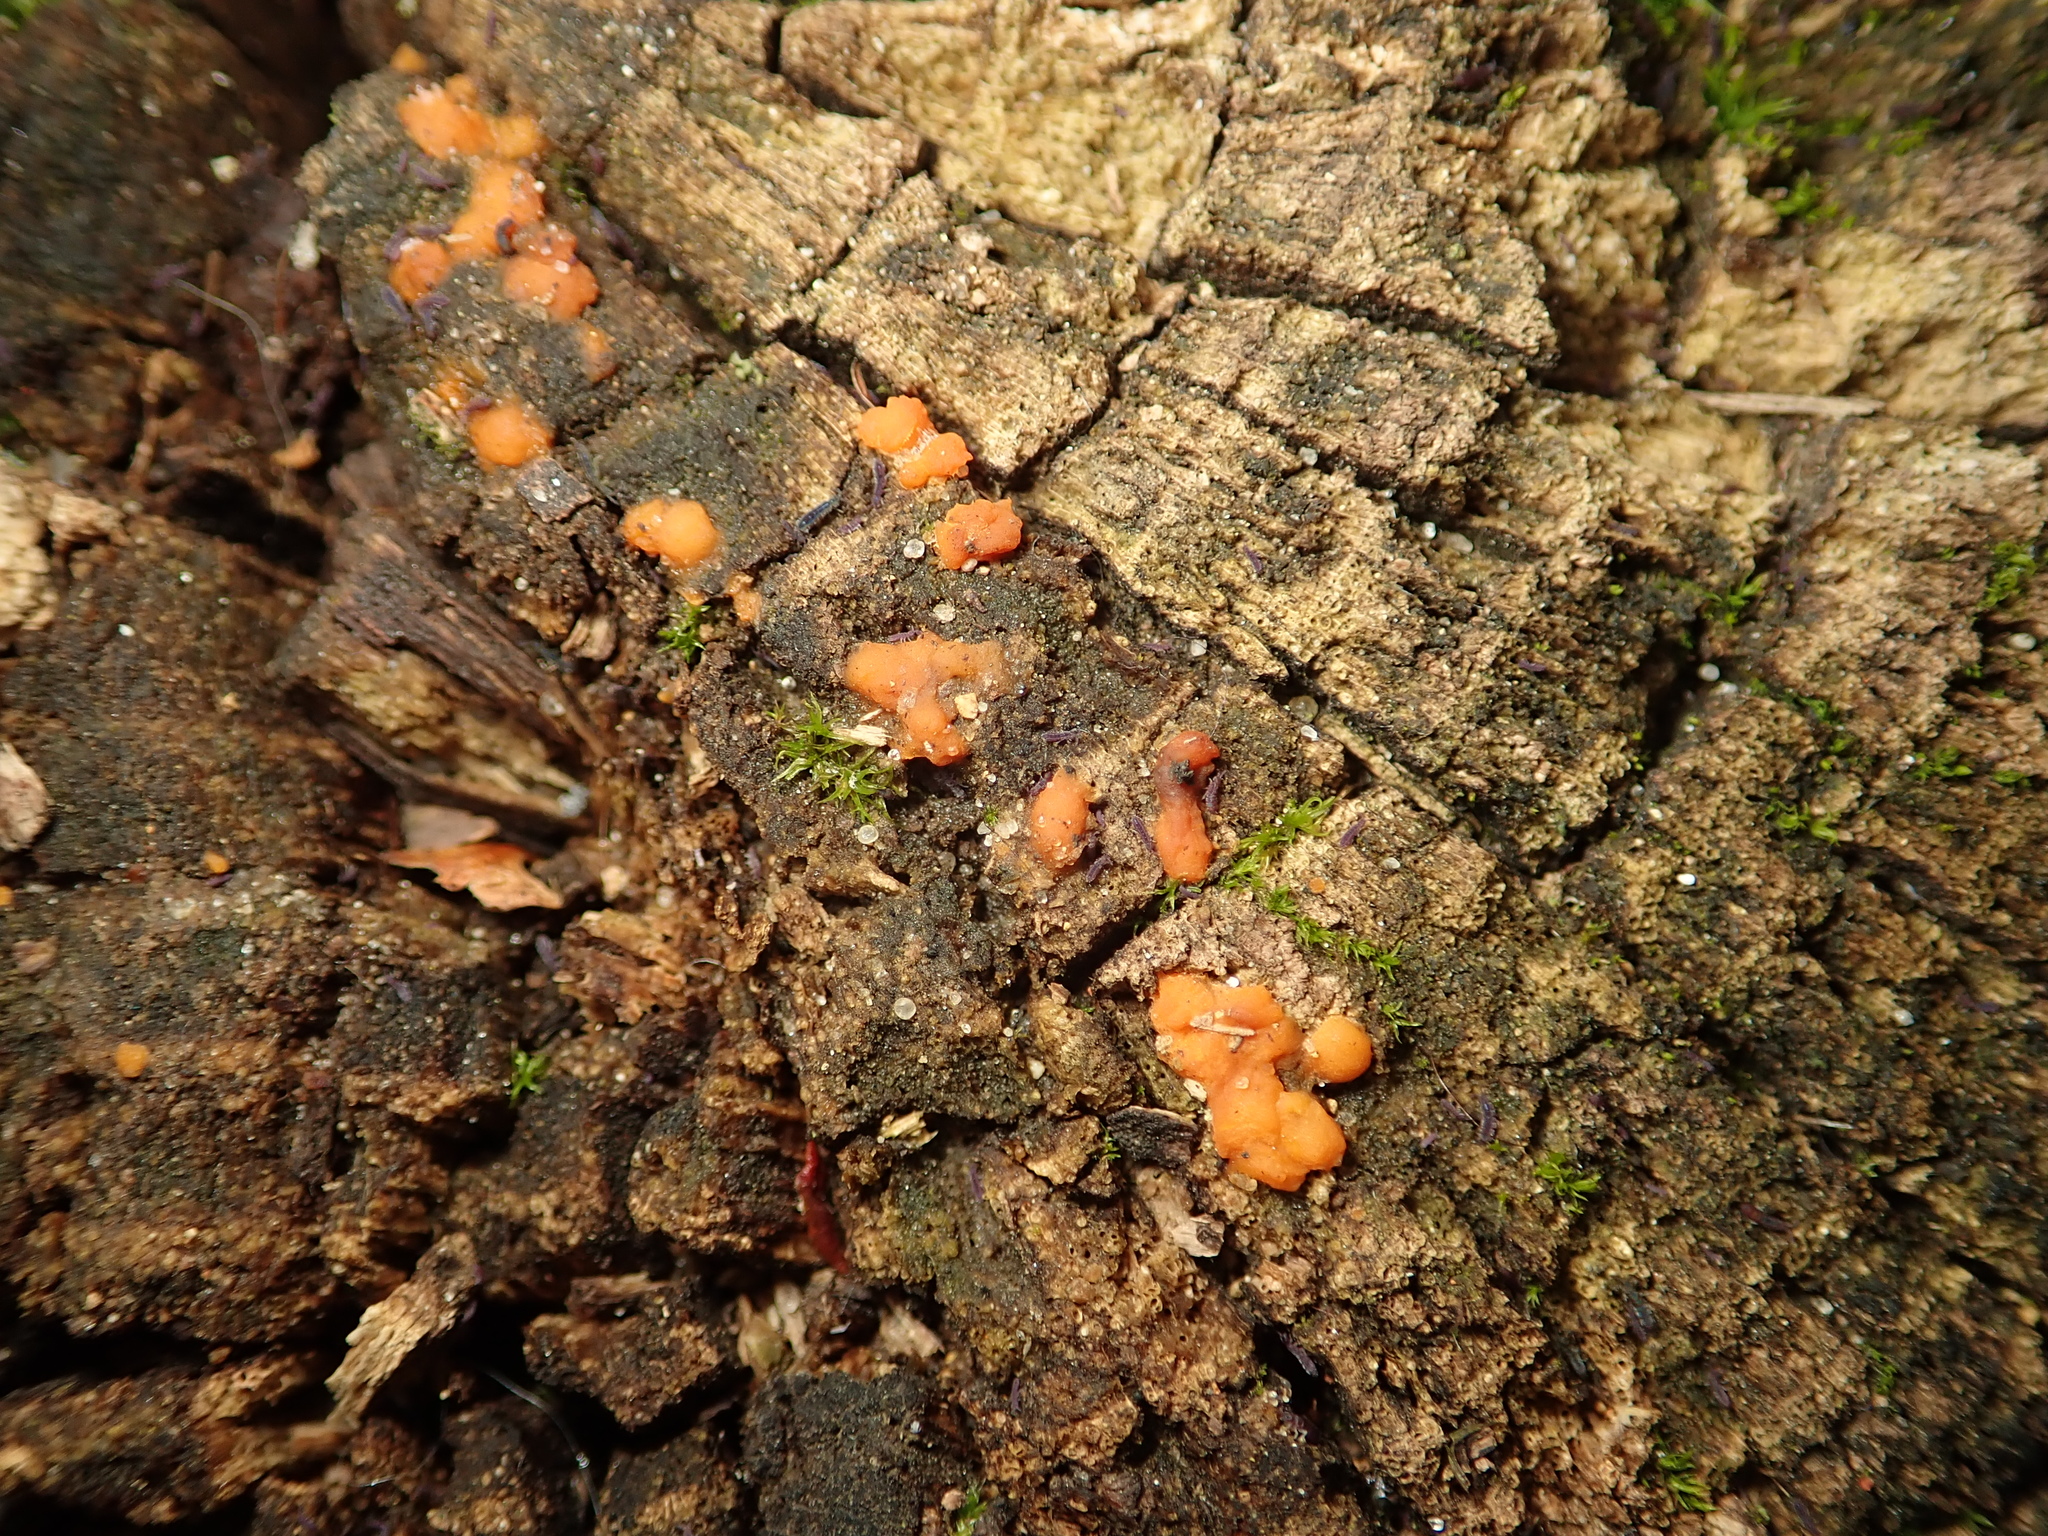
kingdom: Fungi
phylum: Basidiomycota
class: Dacrymycetes
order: Dacrymycetales
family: Dacrymycetaceae
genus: Dacrymyces
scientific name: Dacrymyces stillatus
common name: Common jelly spot
